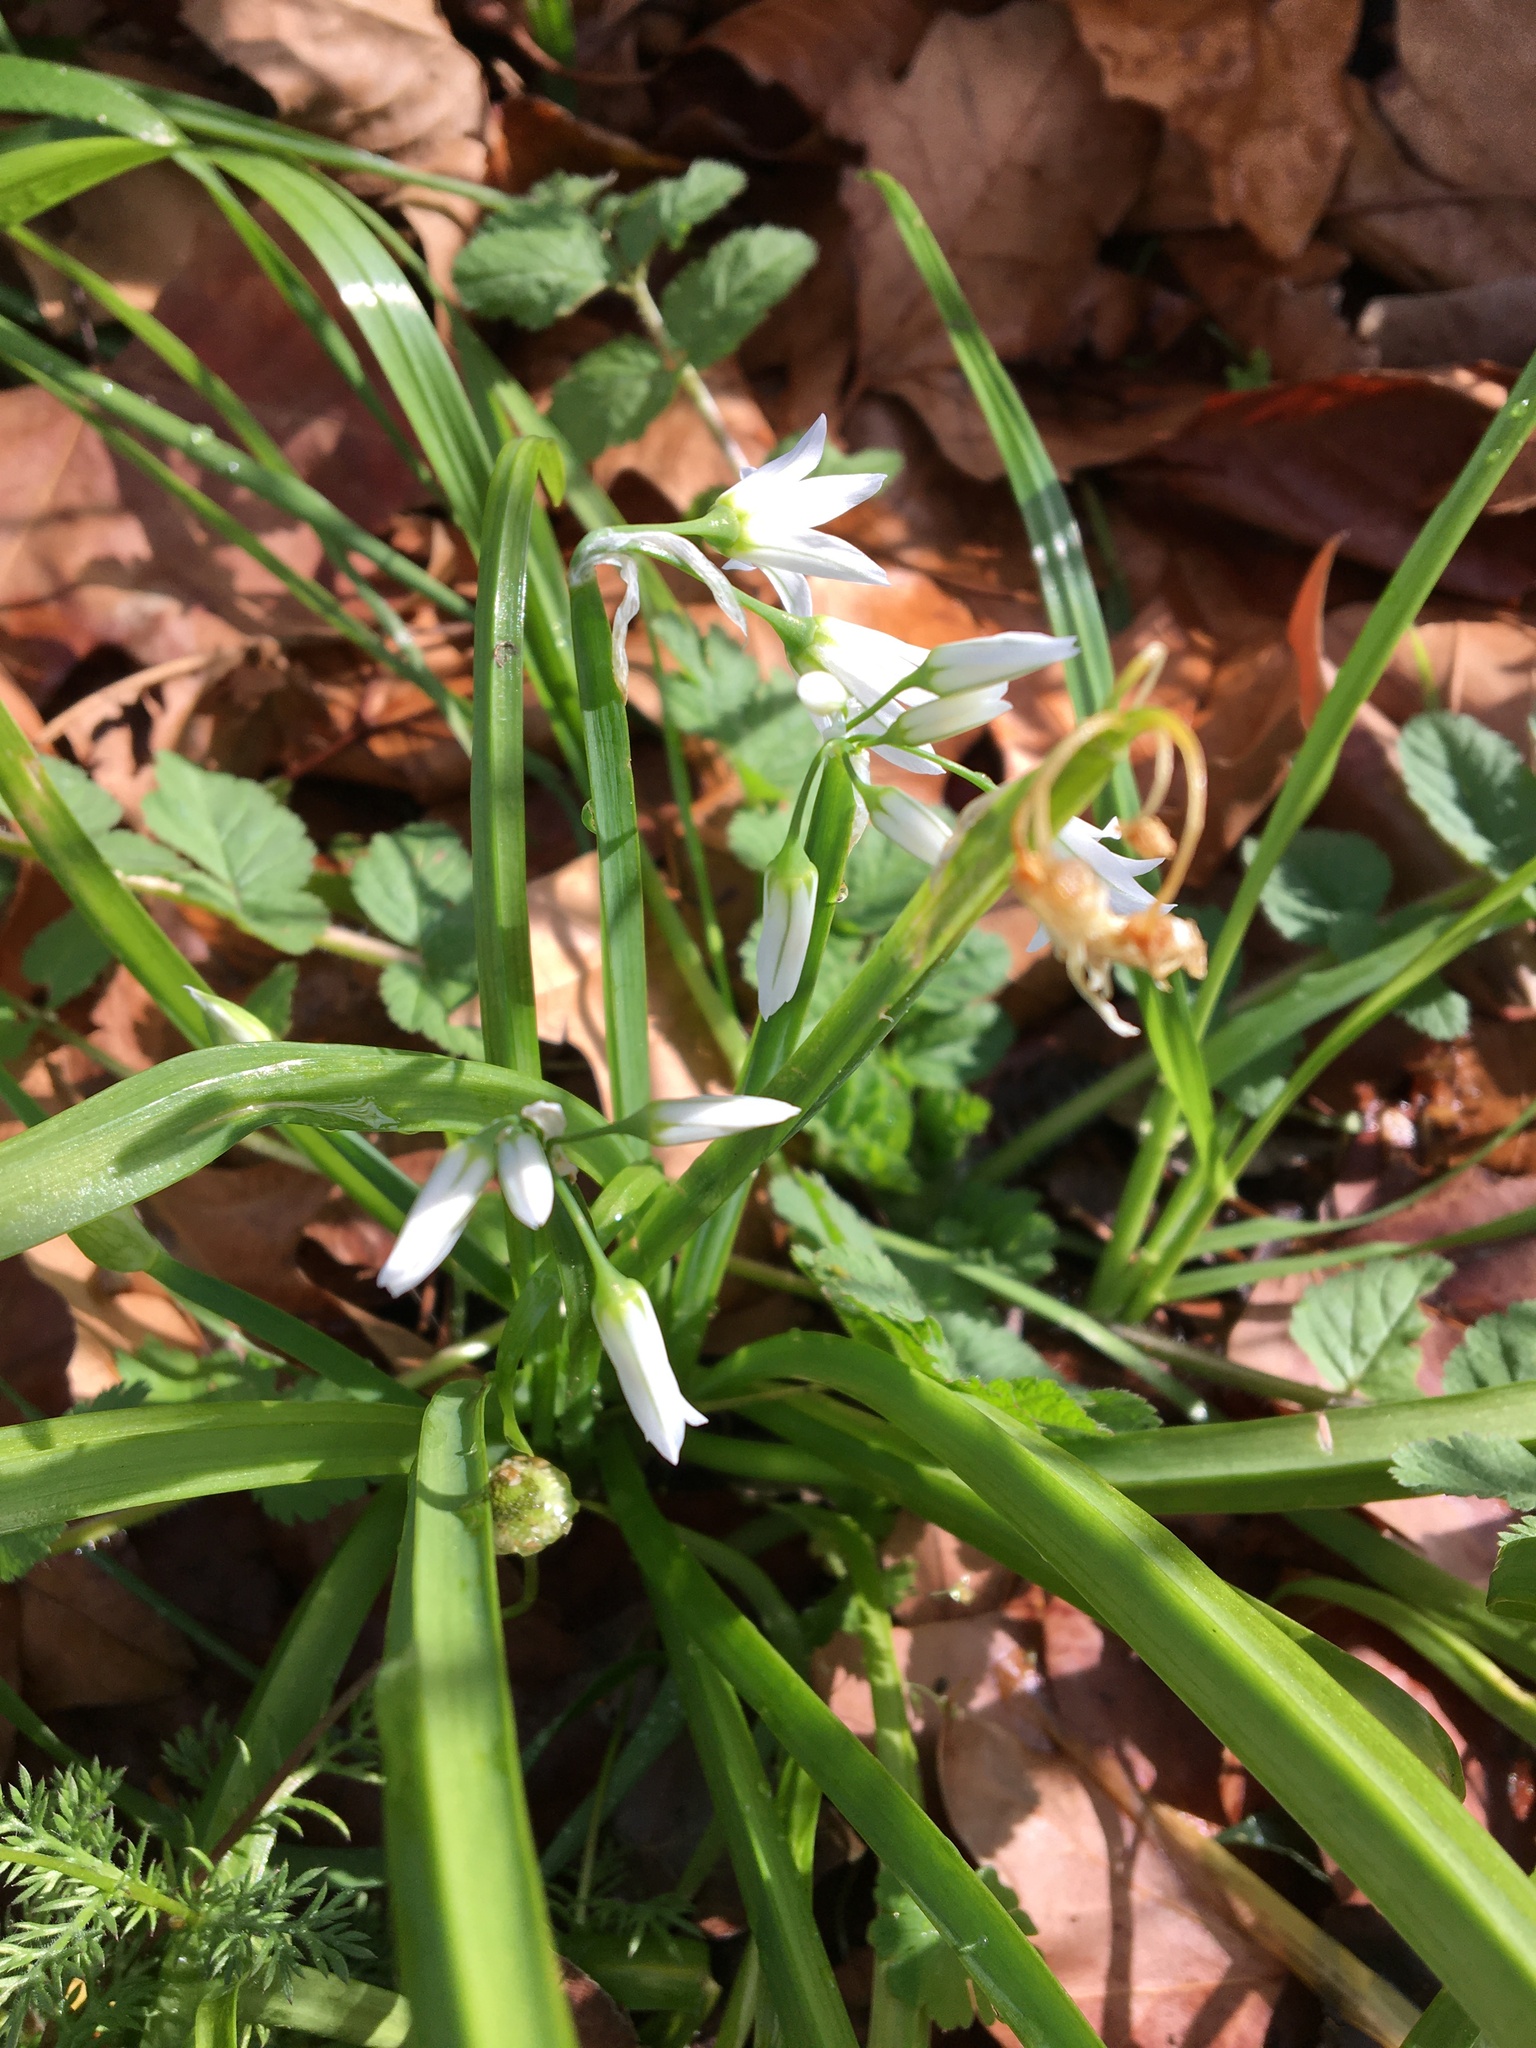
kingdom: Plantae
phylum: Tracheophyta
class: Liliopsida
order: Asparagales
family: Amaryllidaceae
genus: Allium
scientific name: Allium triquetrum
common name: Three-cornered garlic
